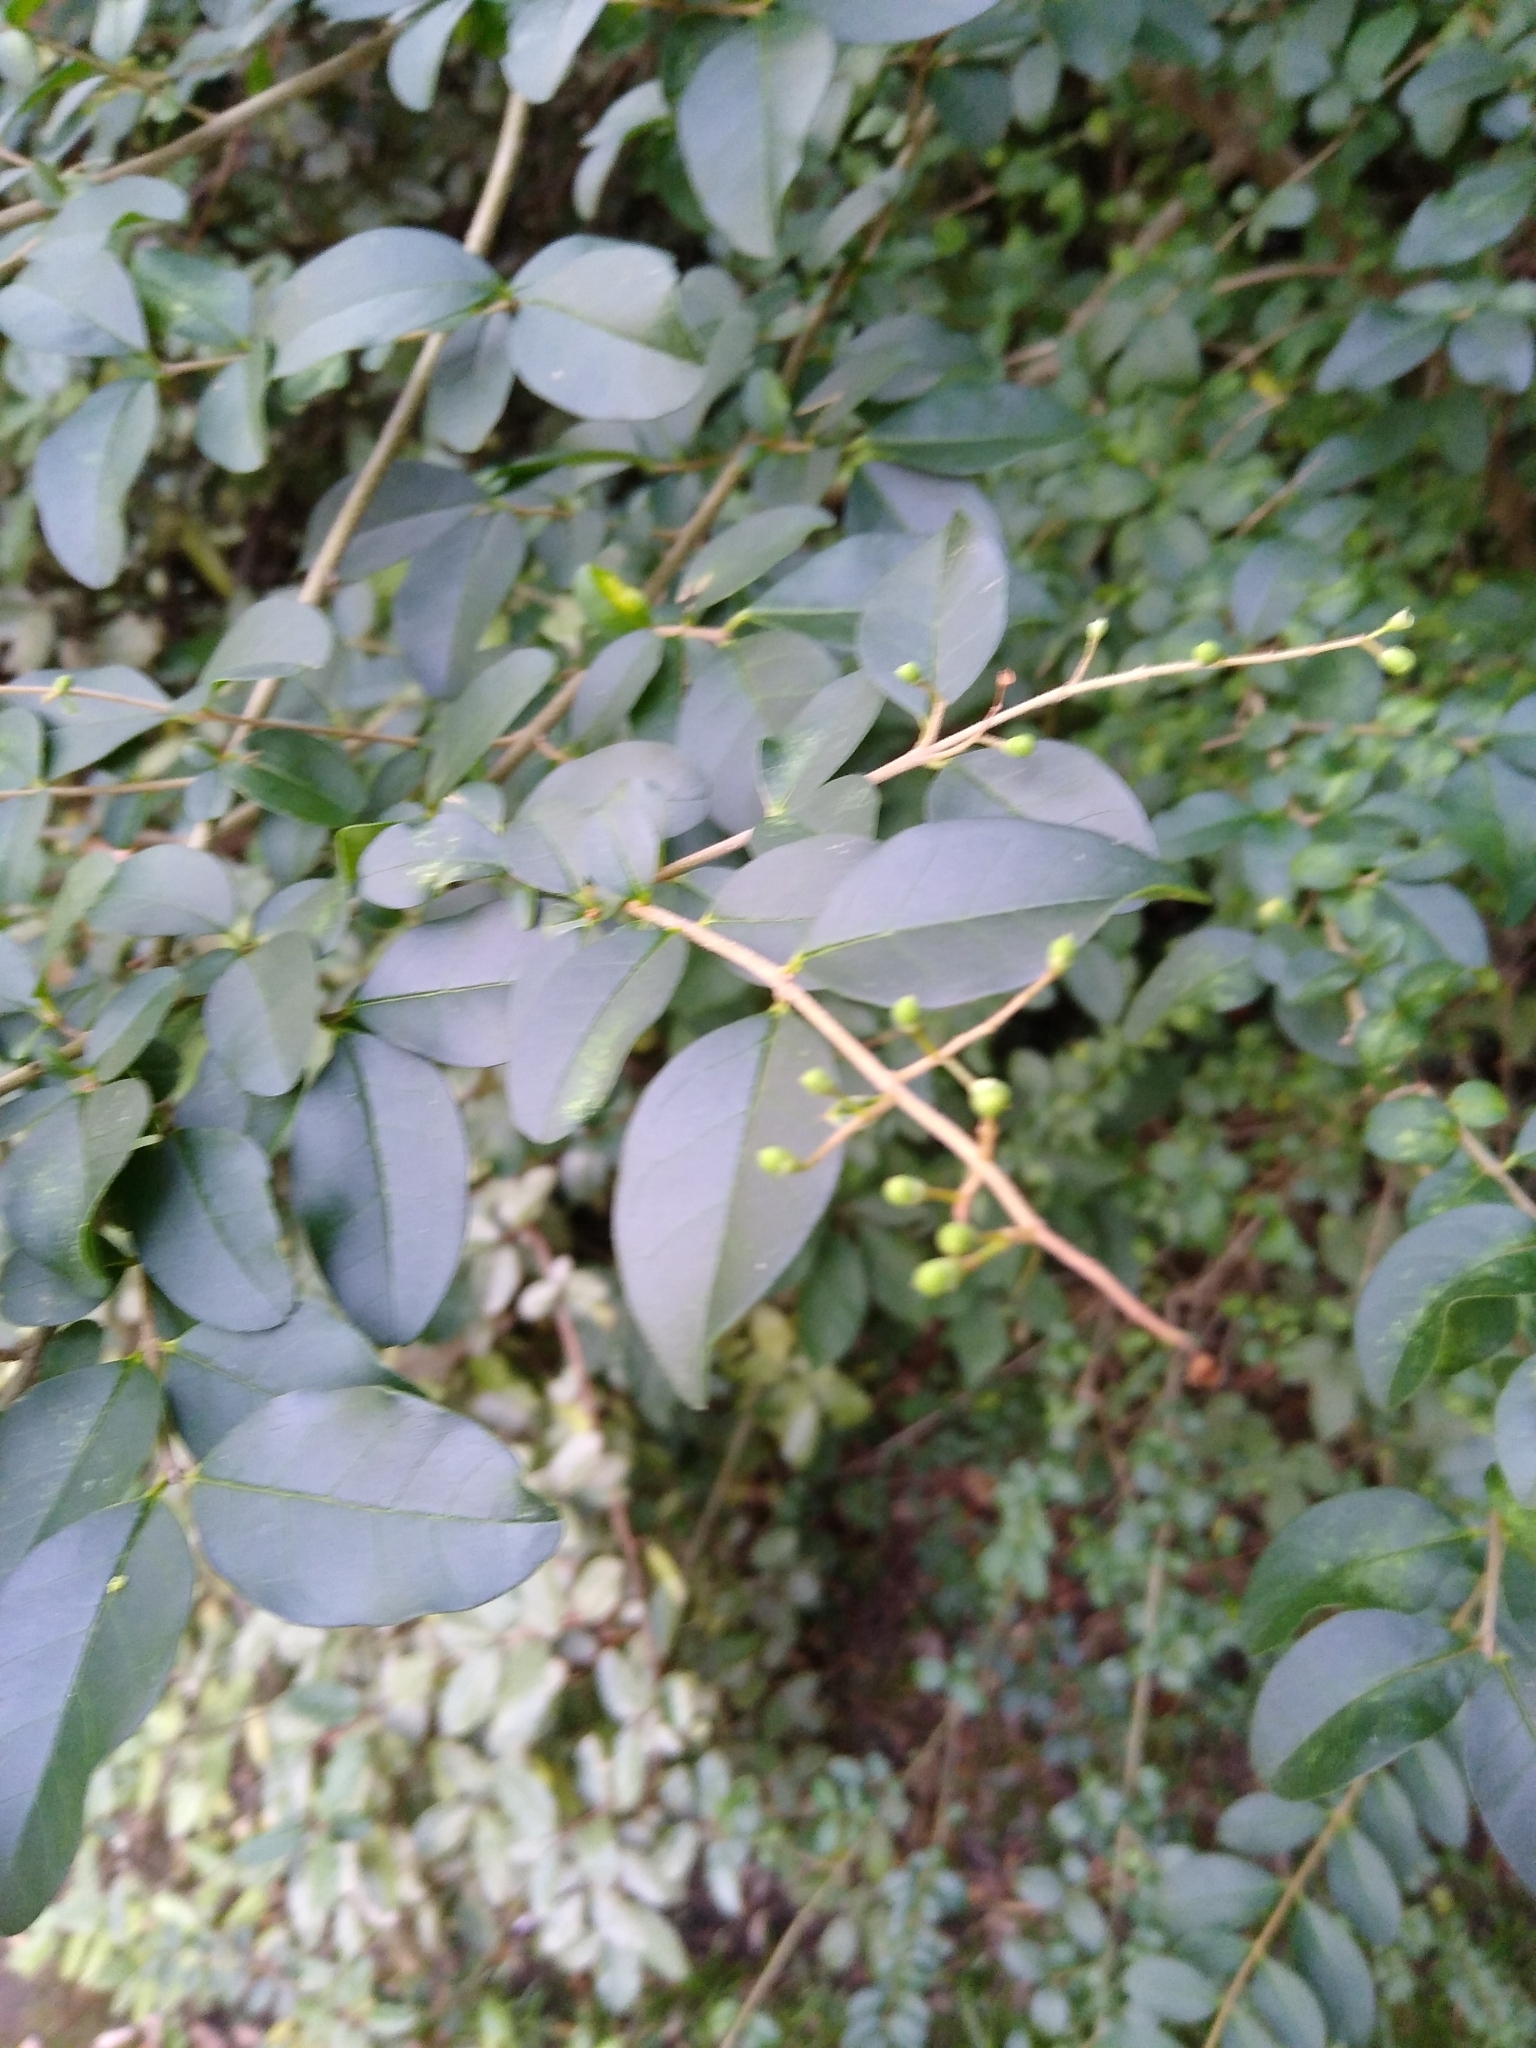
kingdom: Plantae
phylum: Tracheophyta
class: Magnoliopsida
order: Lamiales
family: Oleaceae
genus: Ligustrum
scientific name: Ligustrum sinense
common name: Chinese privet
